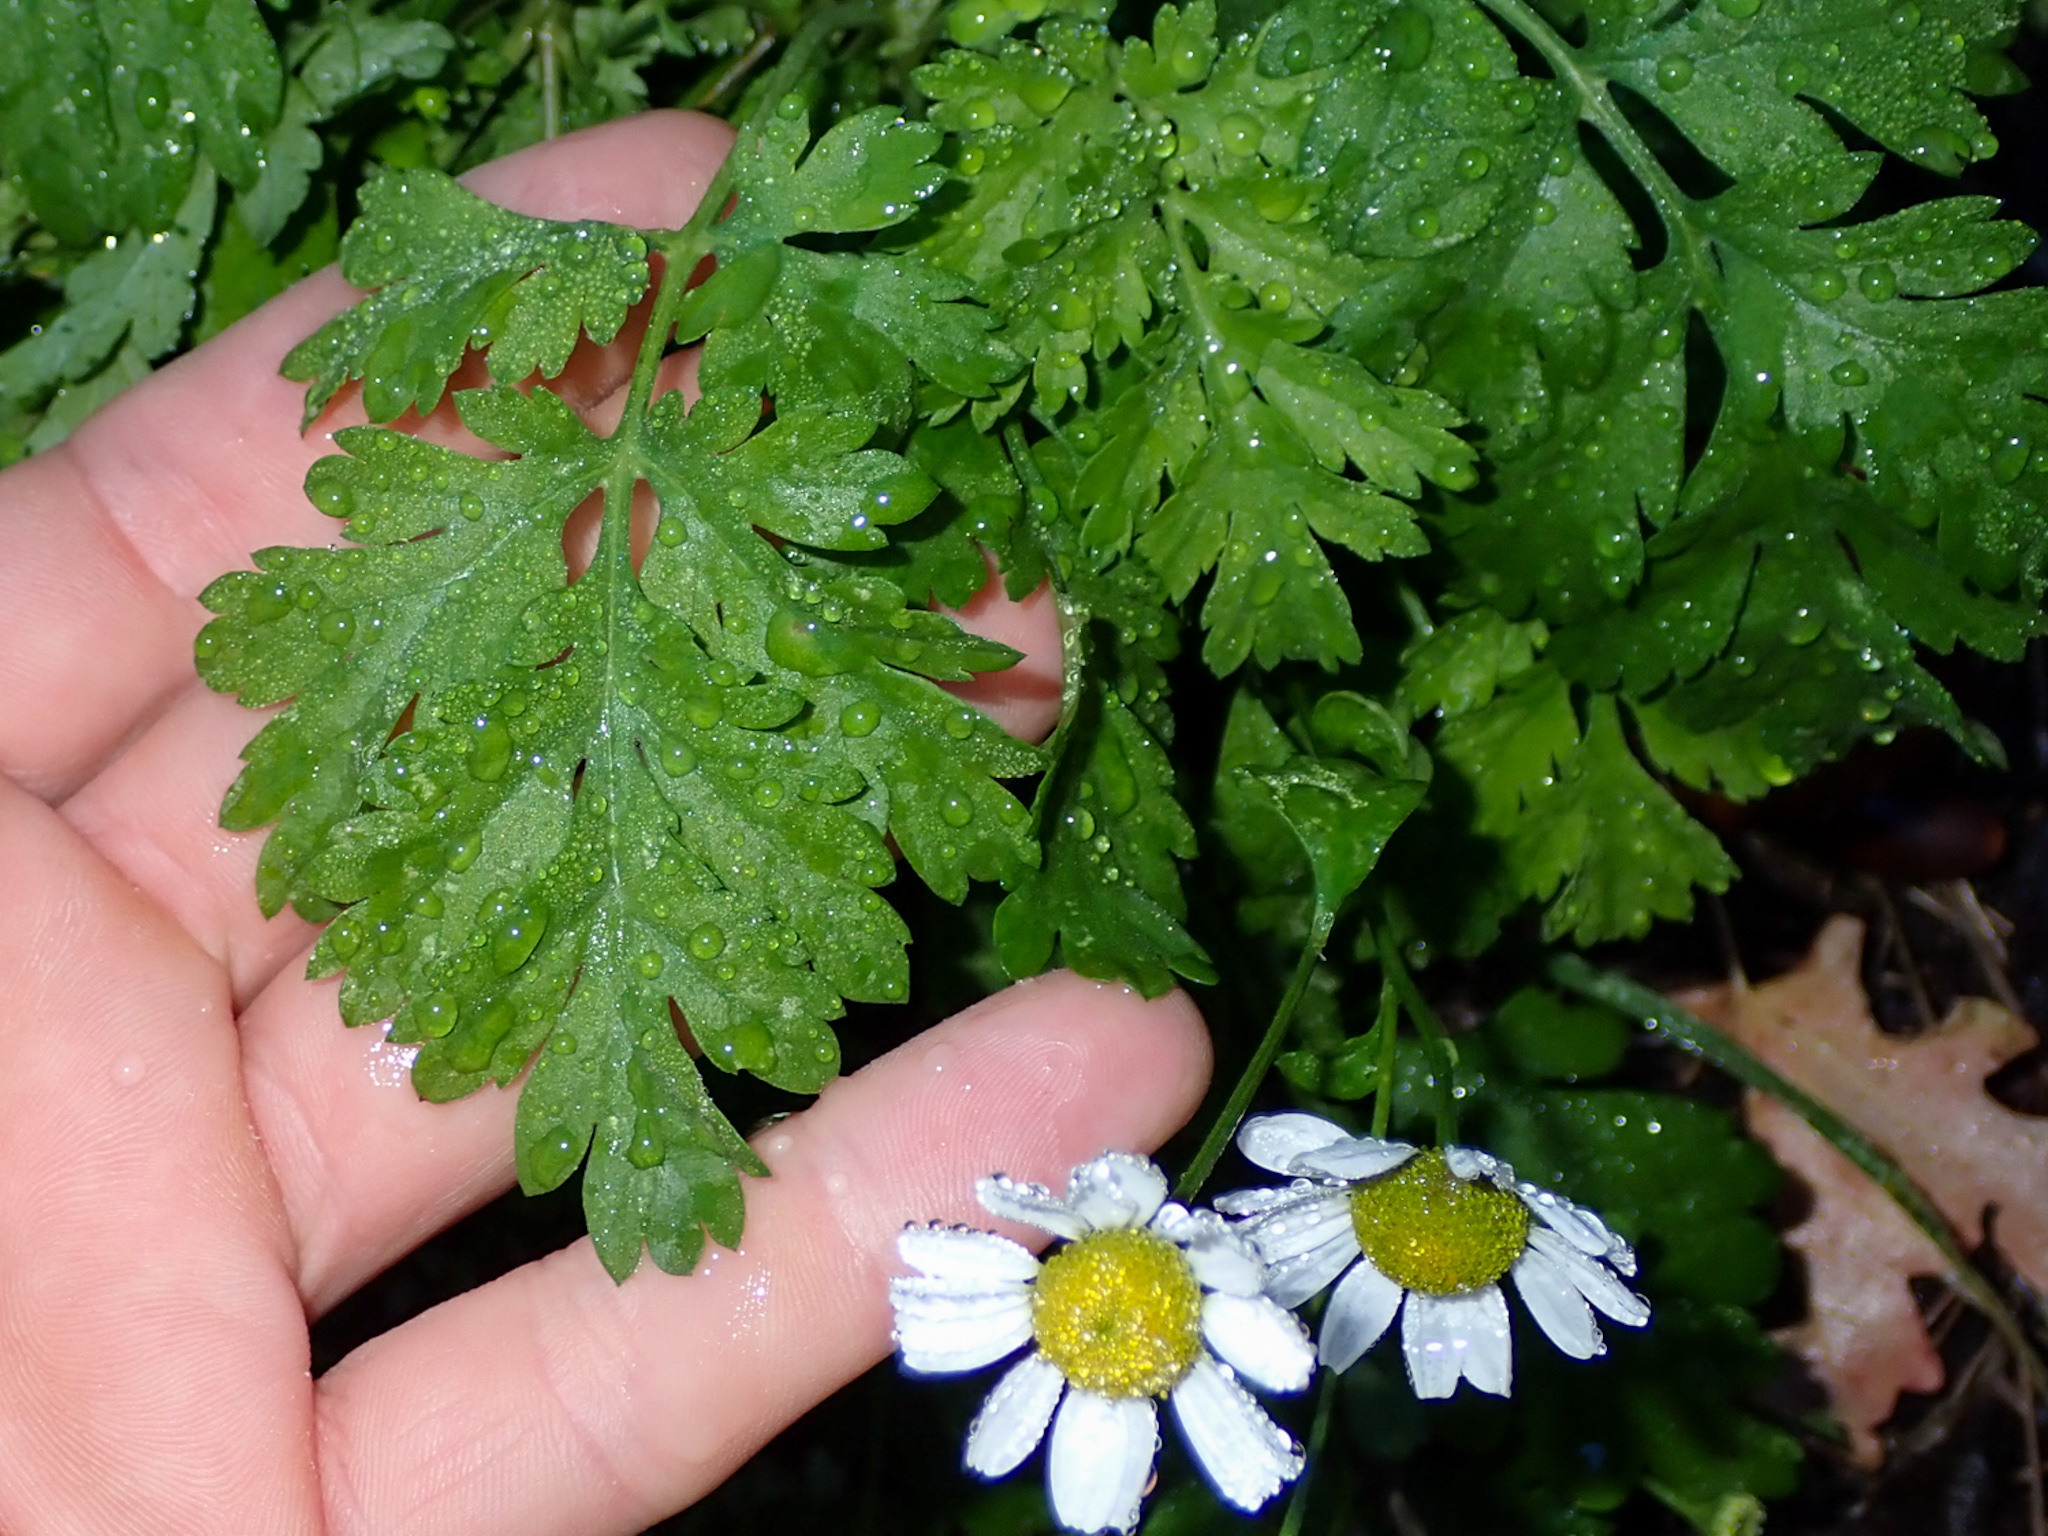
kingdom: Plantae
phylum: Tracheophyta
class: Magnoliopsida
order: Asterales
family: Asteraceae
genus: Tanacetum
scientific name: Tanacetum parthenium
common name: Feverfew
